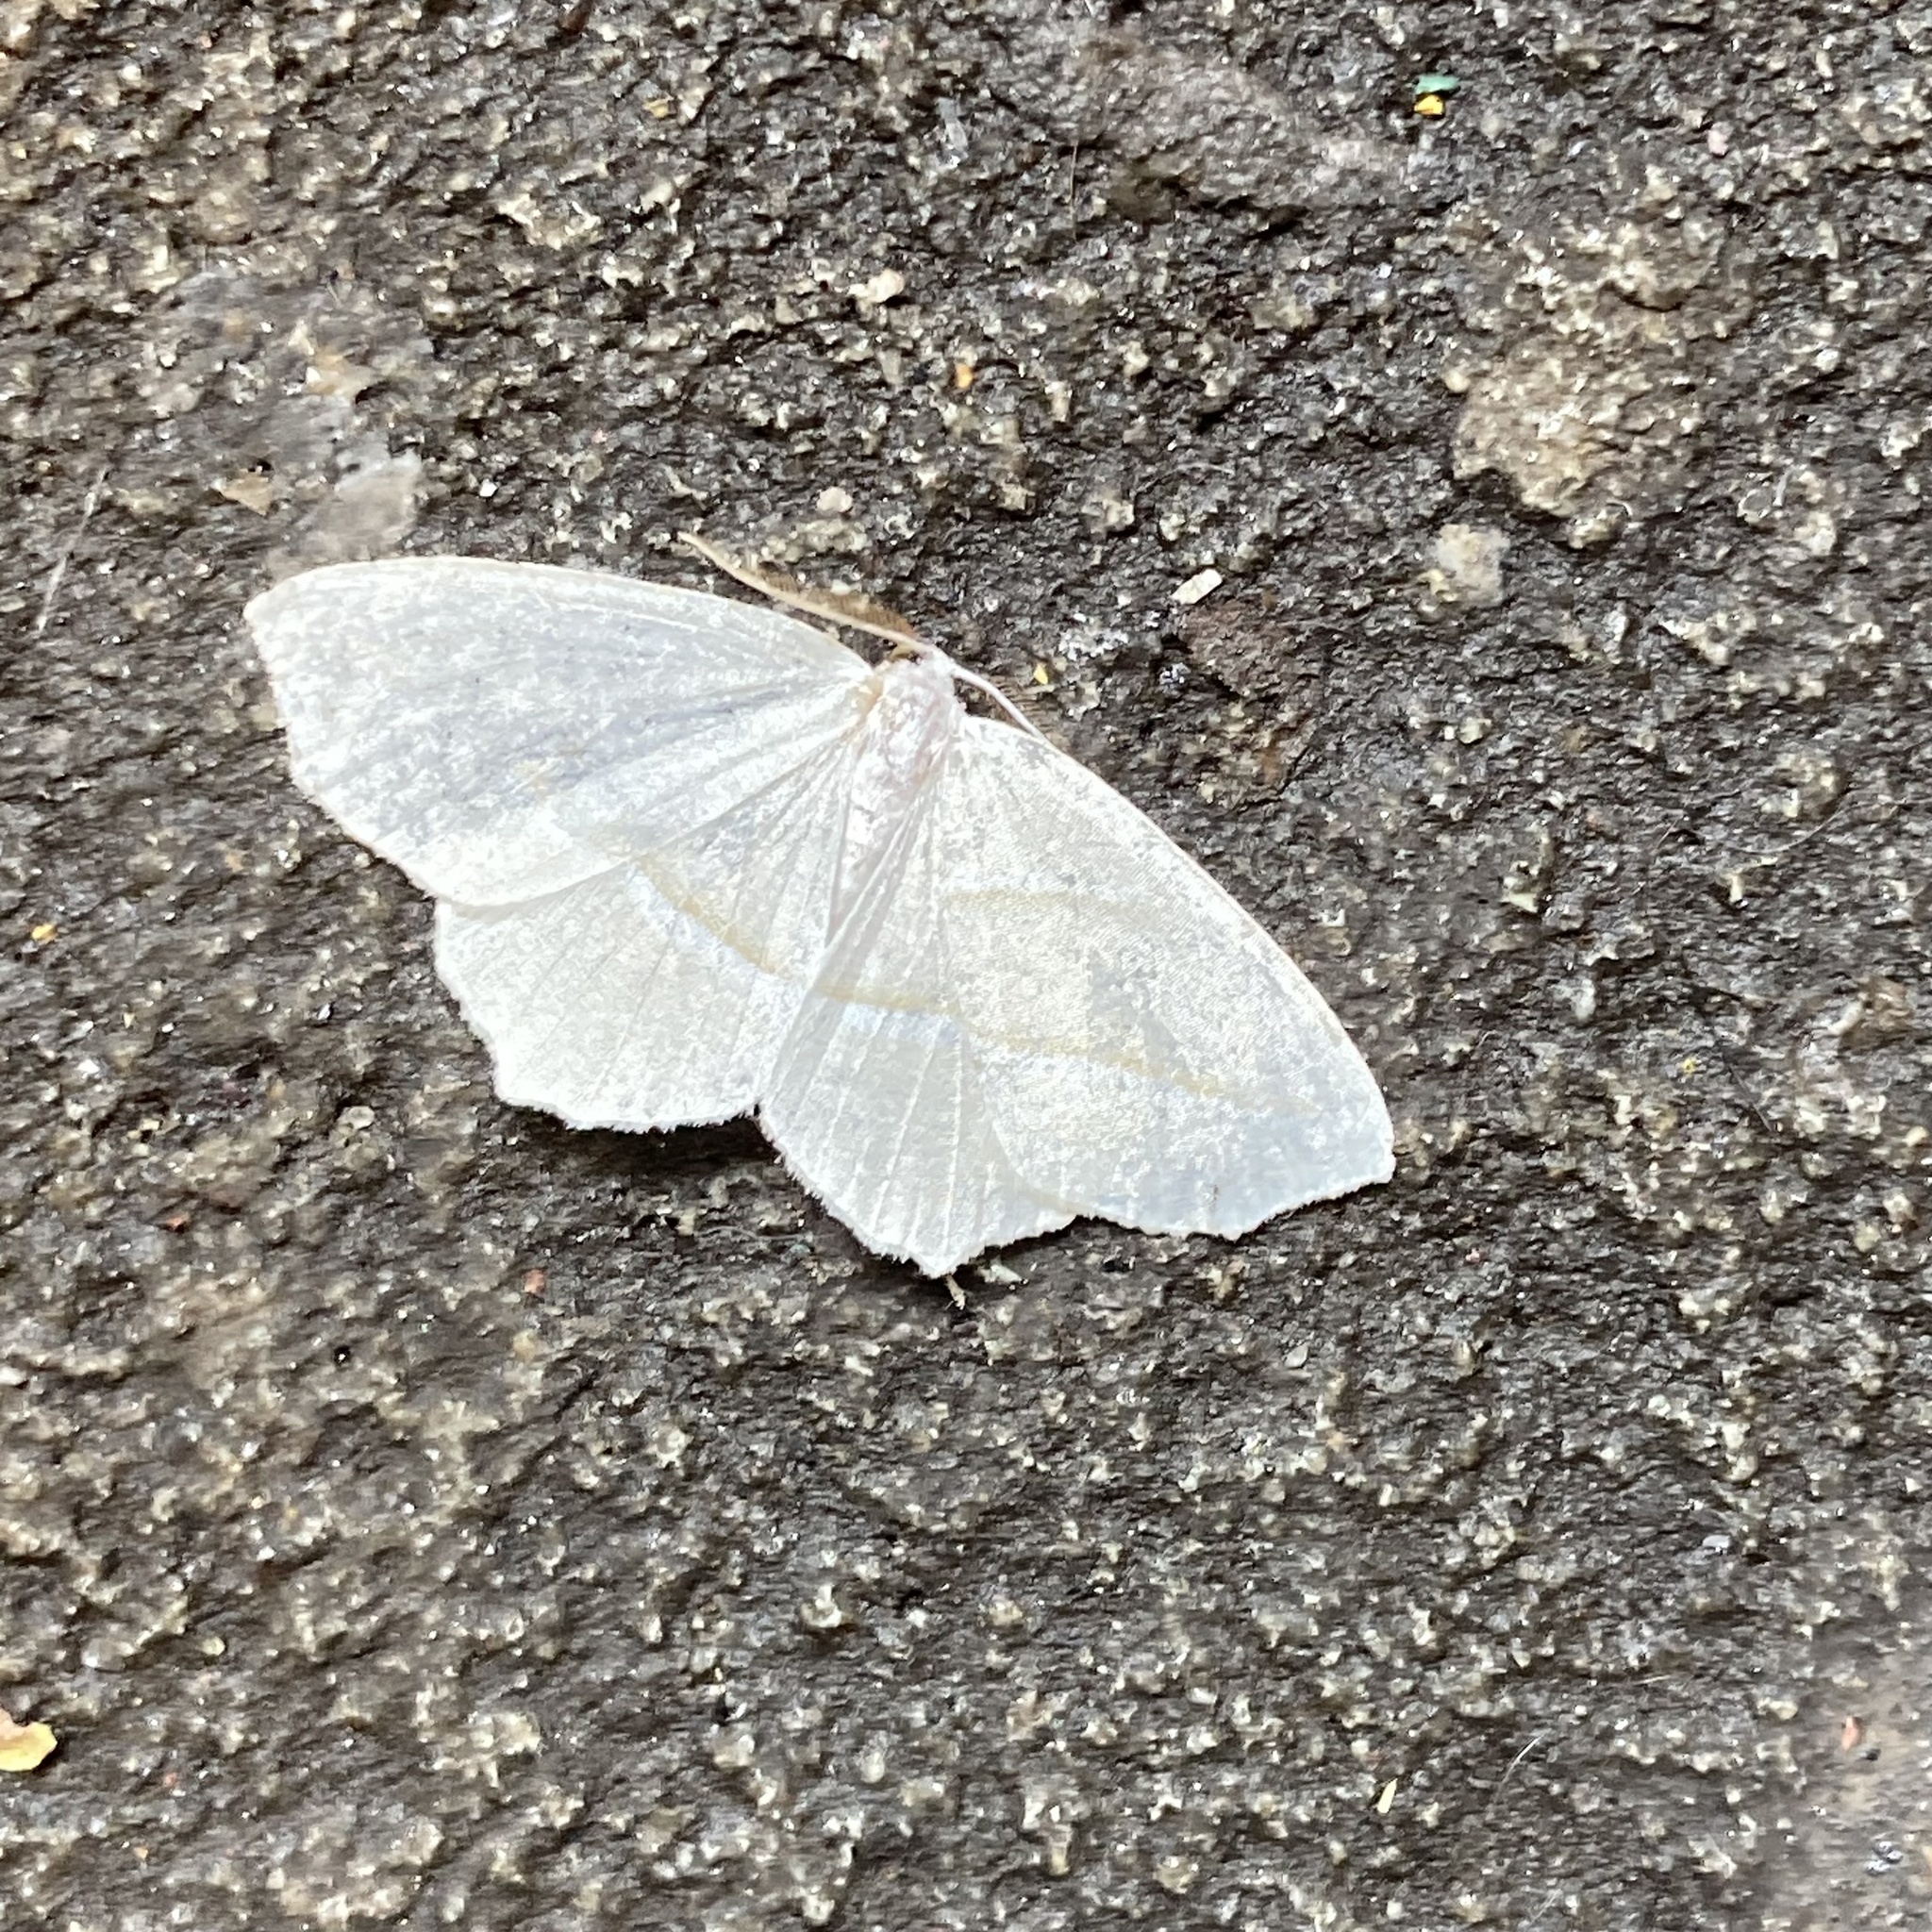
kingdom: Animalia
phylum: Arthropoda
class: Insecta
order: Lepidoptera
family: Geometridae
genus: Campaea
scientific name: Campaea perlata
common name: Fringed looper
